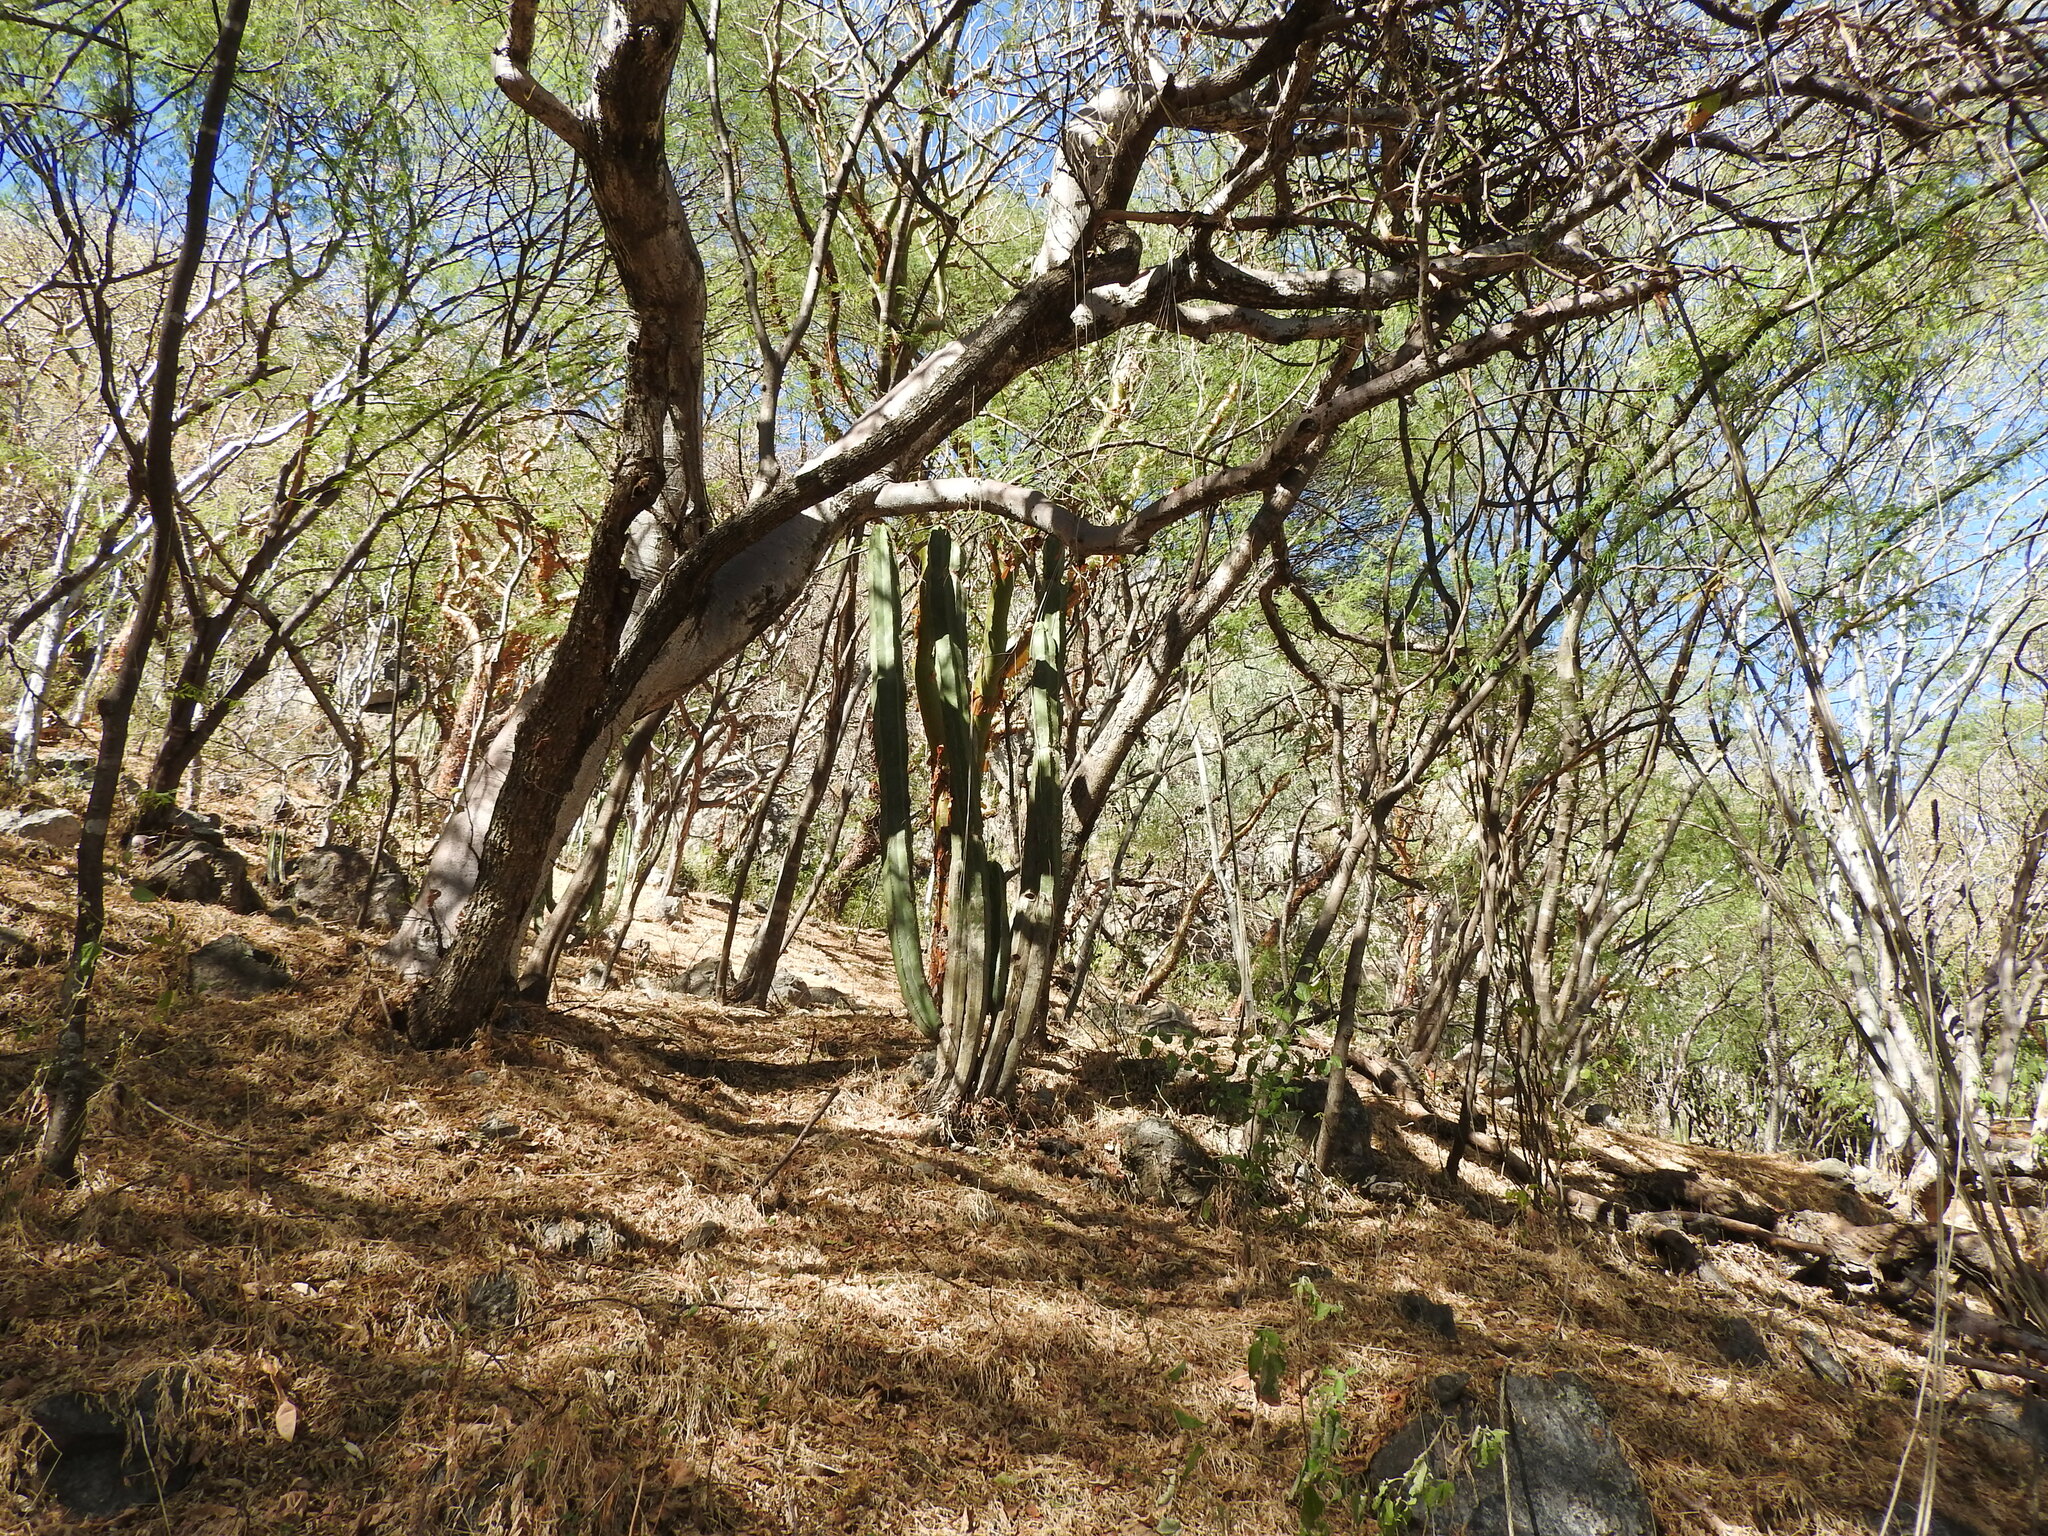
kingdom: Plantae
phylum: Tracheophyta
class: Magnoliopsida
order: Caryophyllales
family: Cactaceae
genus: Stenocereus
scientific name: Stenocereus dumortieri
